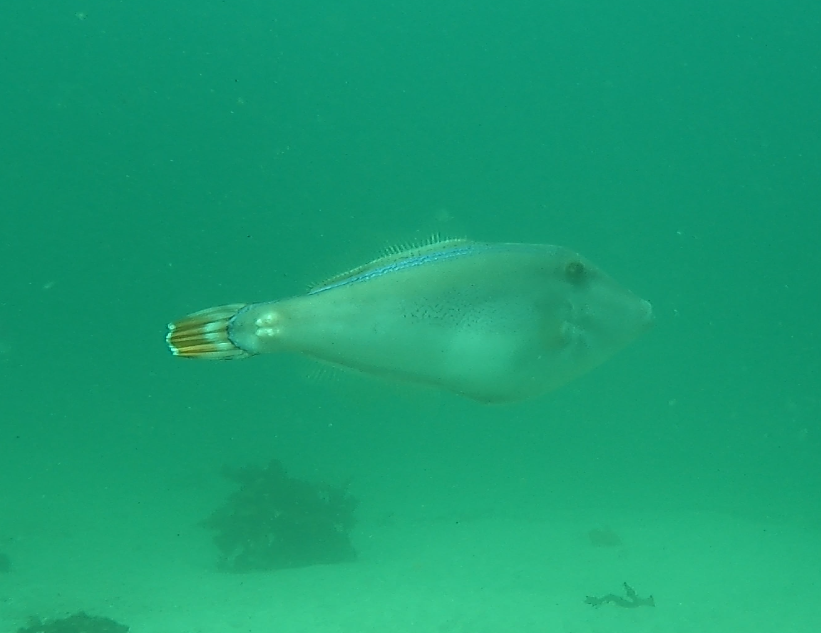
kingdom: Animalia
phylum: Chordata
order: Tetraodontiformes
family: Monacanthidae
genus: Meuschenia
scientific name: Meuschenia trachylepis
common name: Yellowfin leatherjacket
